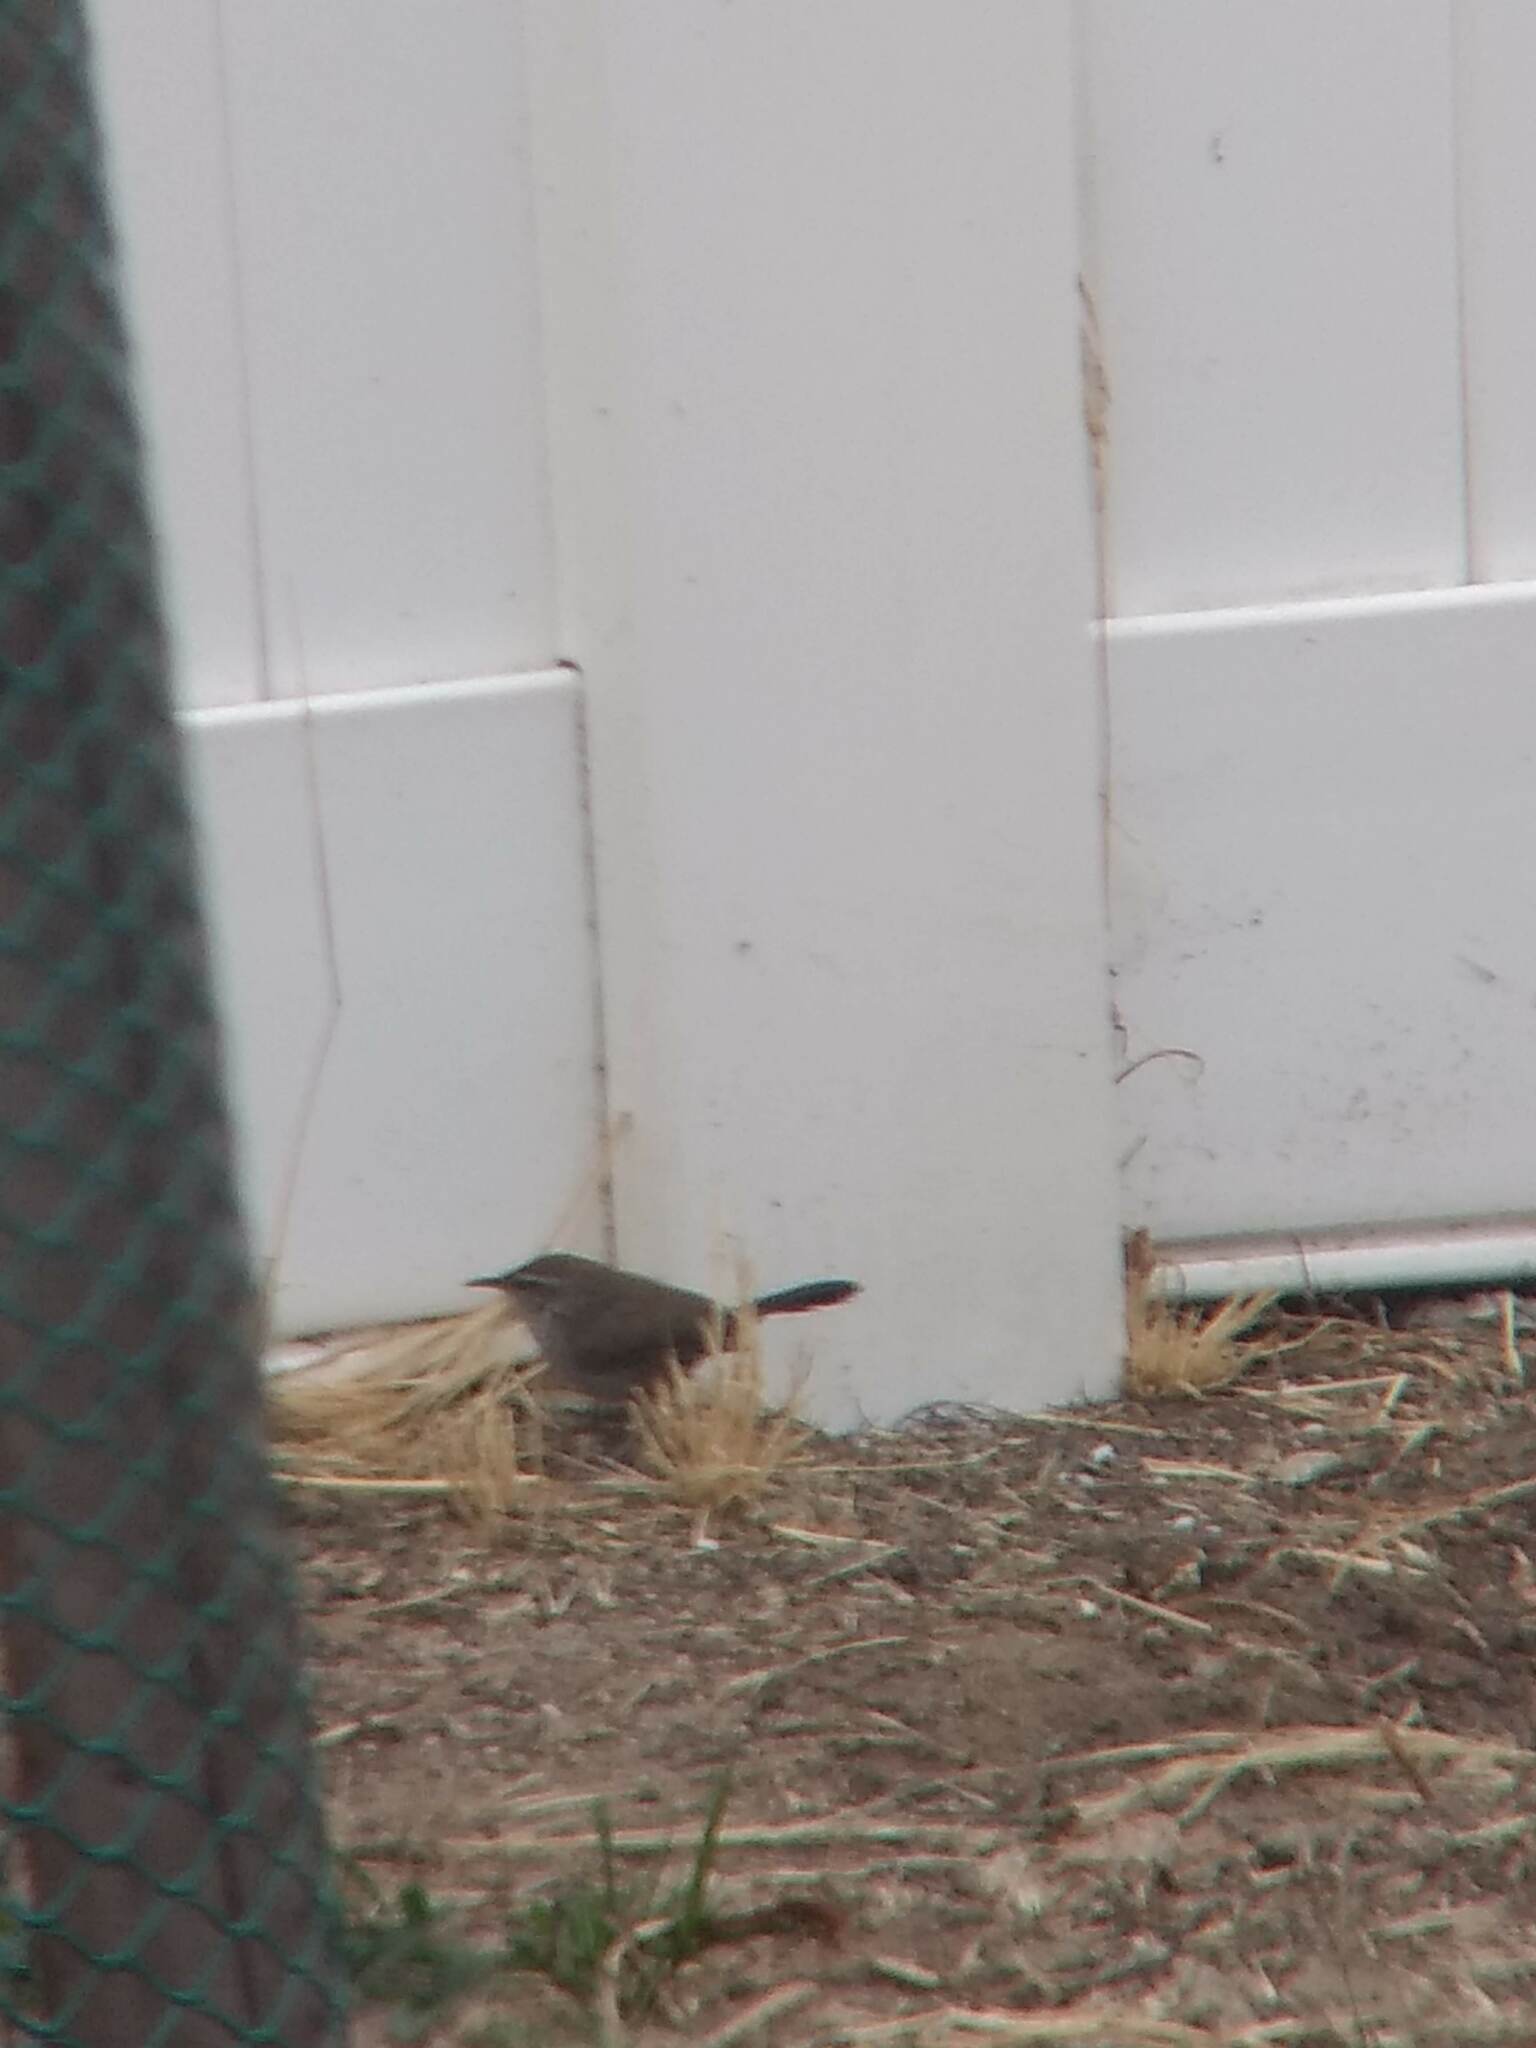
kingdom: Animalia
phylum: Chordata
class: Aves
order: Passeriformes
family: Troglodytidae
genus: Thryomanes
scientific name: Thryomanes bewickii
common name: Bewick's wren
